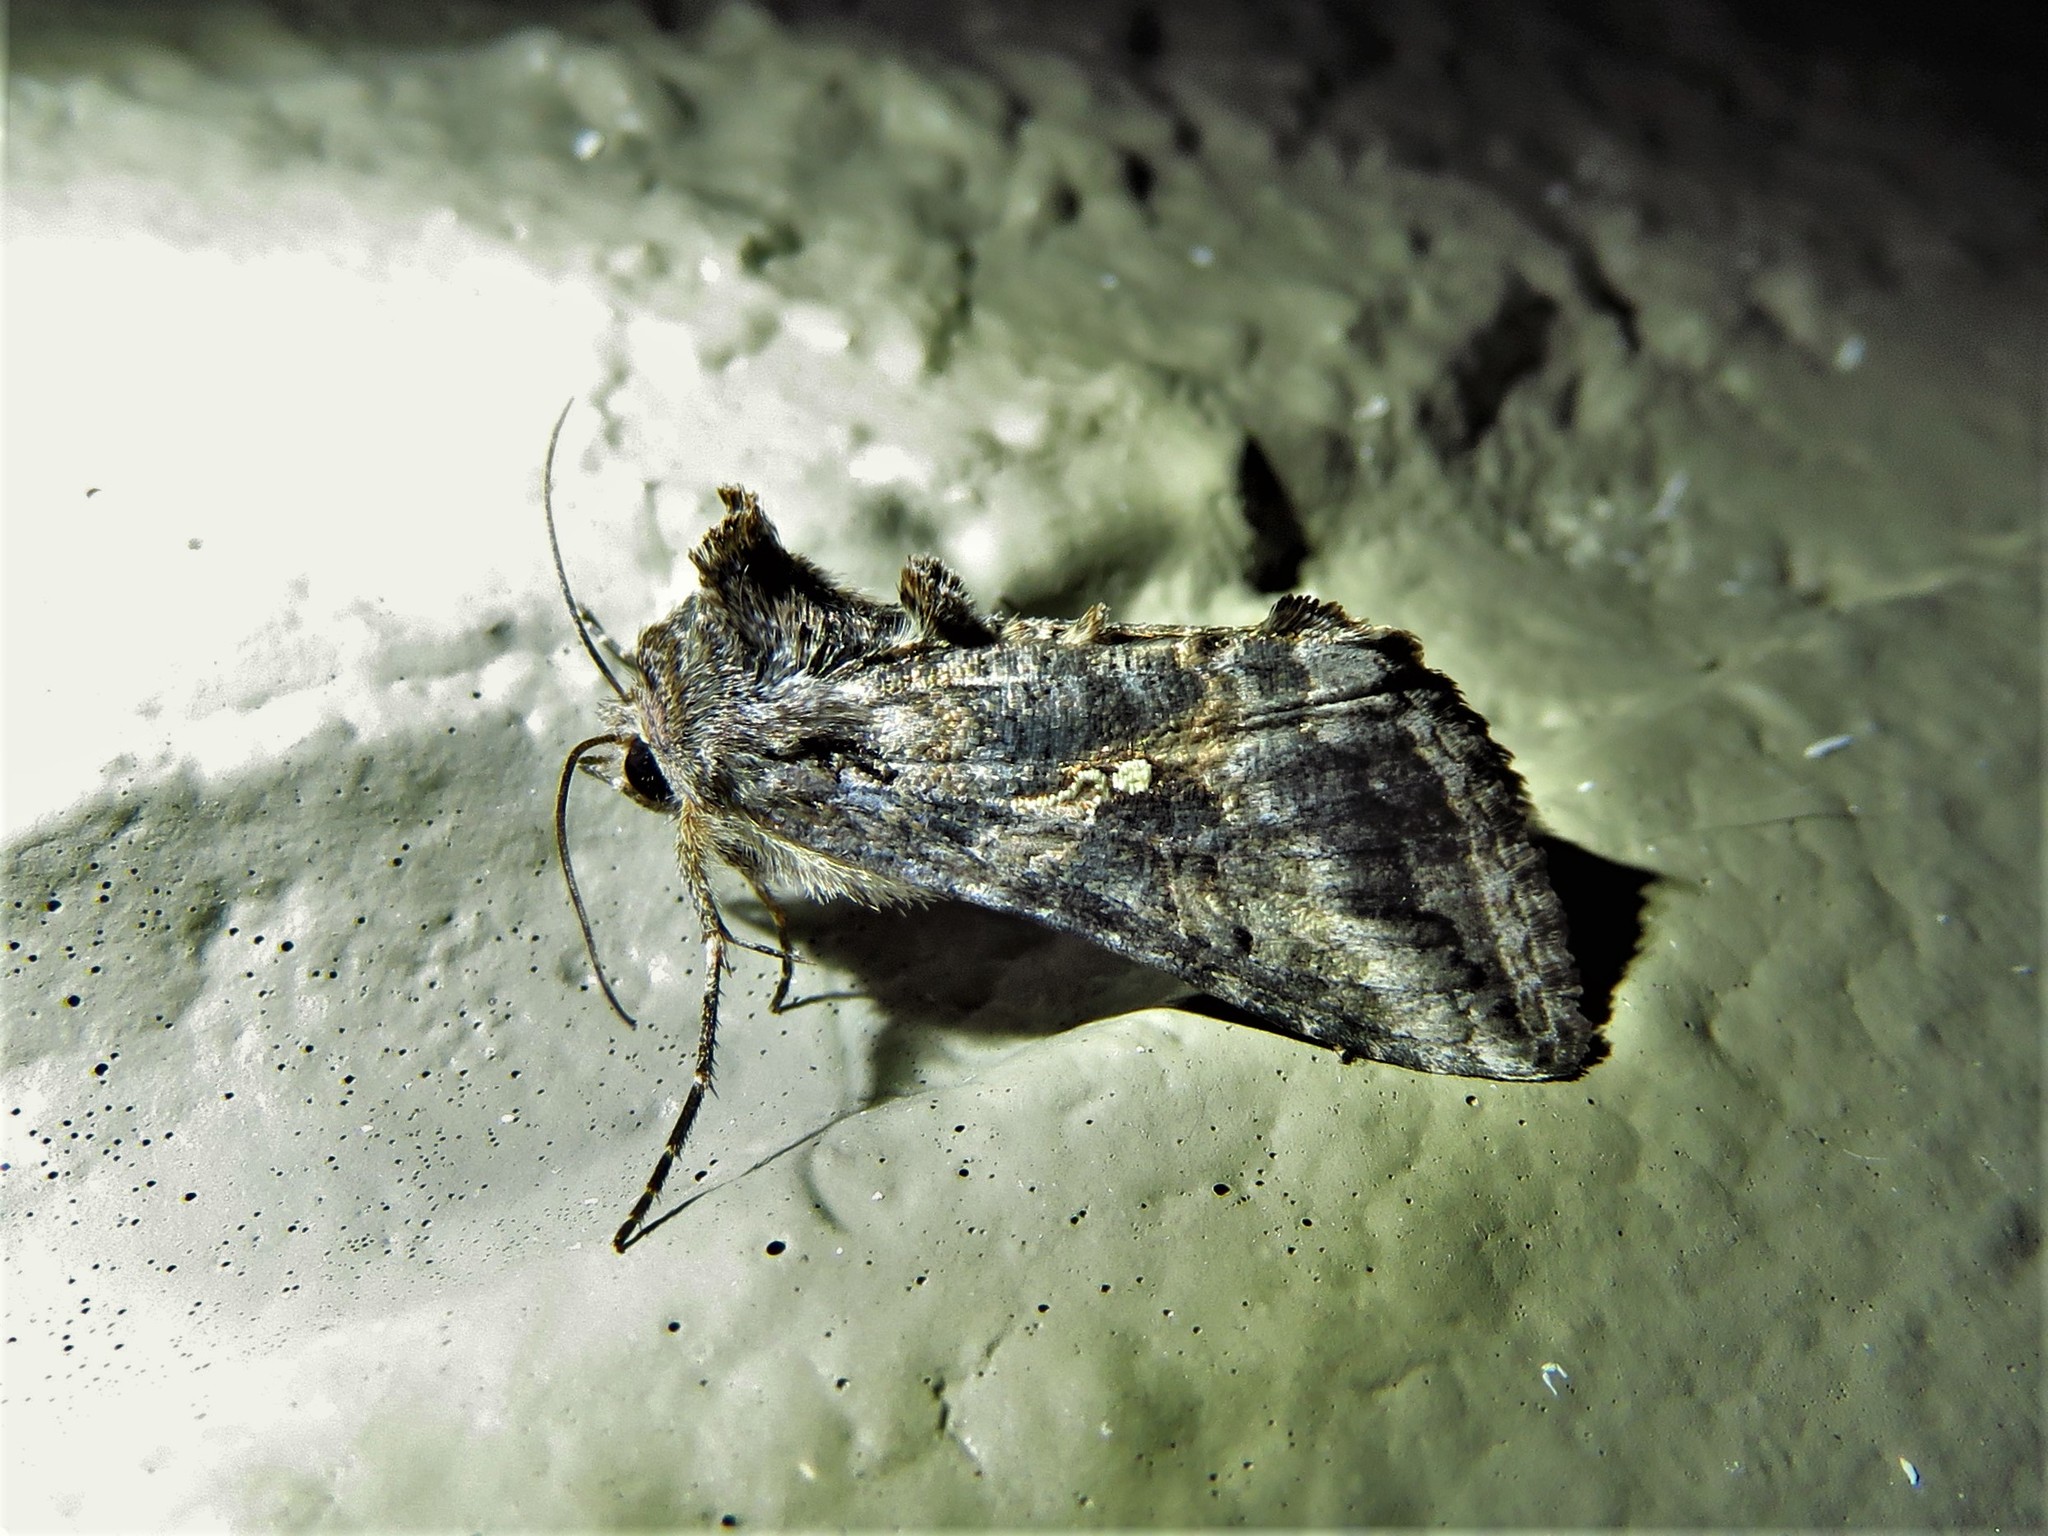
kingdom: Animalia
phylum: Arthropoda
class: Insecta
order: Lepidoptera
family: Noctuidae
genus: Rachiplusia
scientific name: Rachiplusia ou
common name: Gray looper moth
